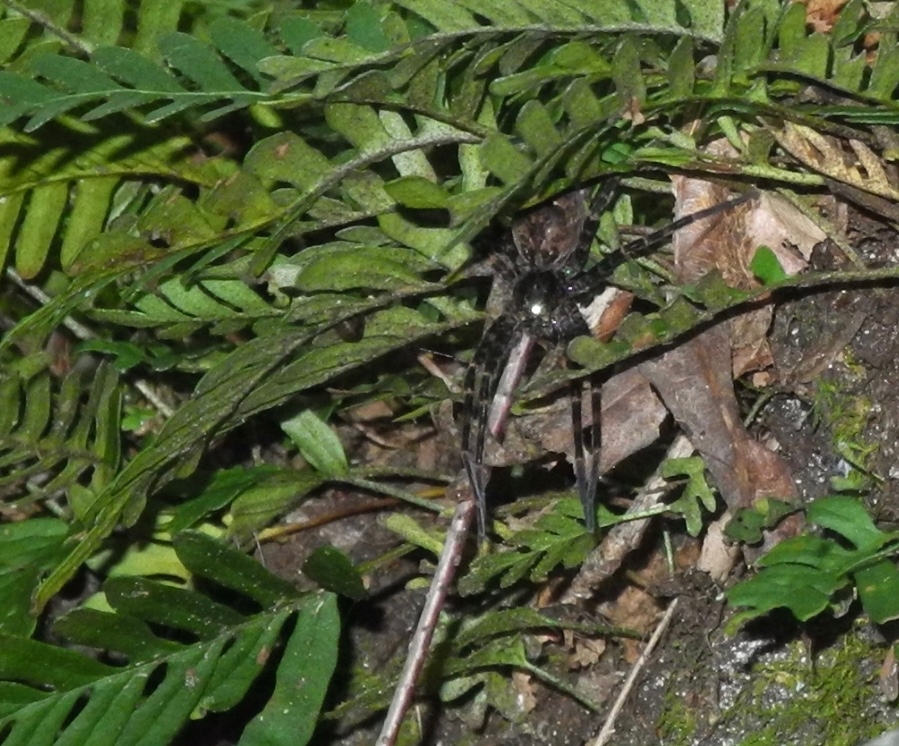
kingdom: Animalia
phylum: Arthropoda
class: Arachnida
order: Araneae
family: Pisauridae
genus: Dolomedes
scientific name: Dolomedes tenebrosus
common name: Dark fishing spider
